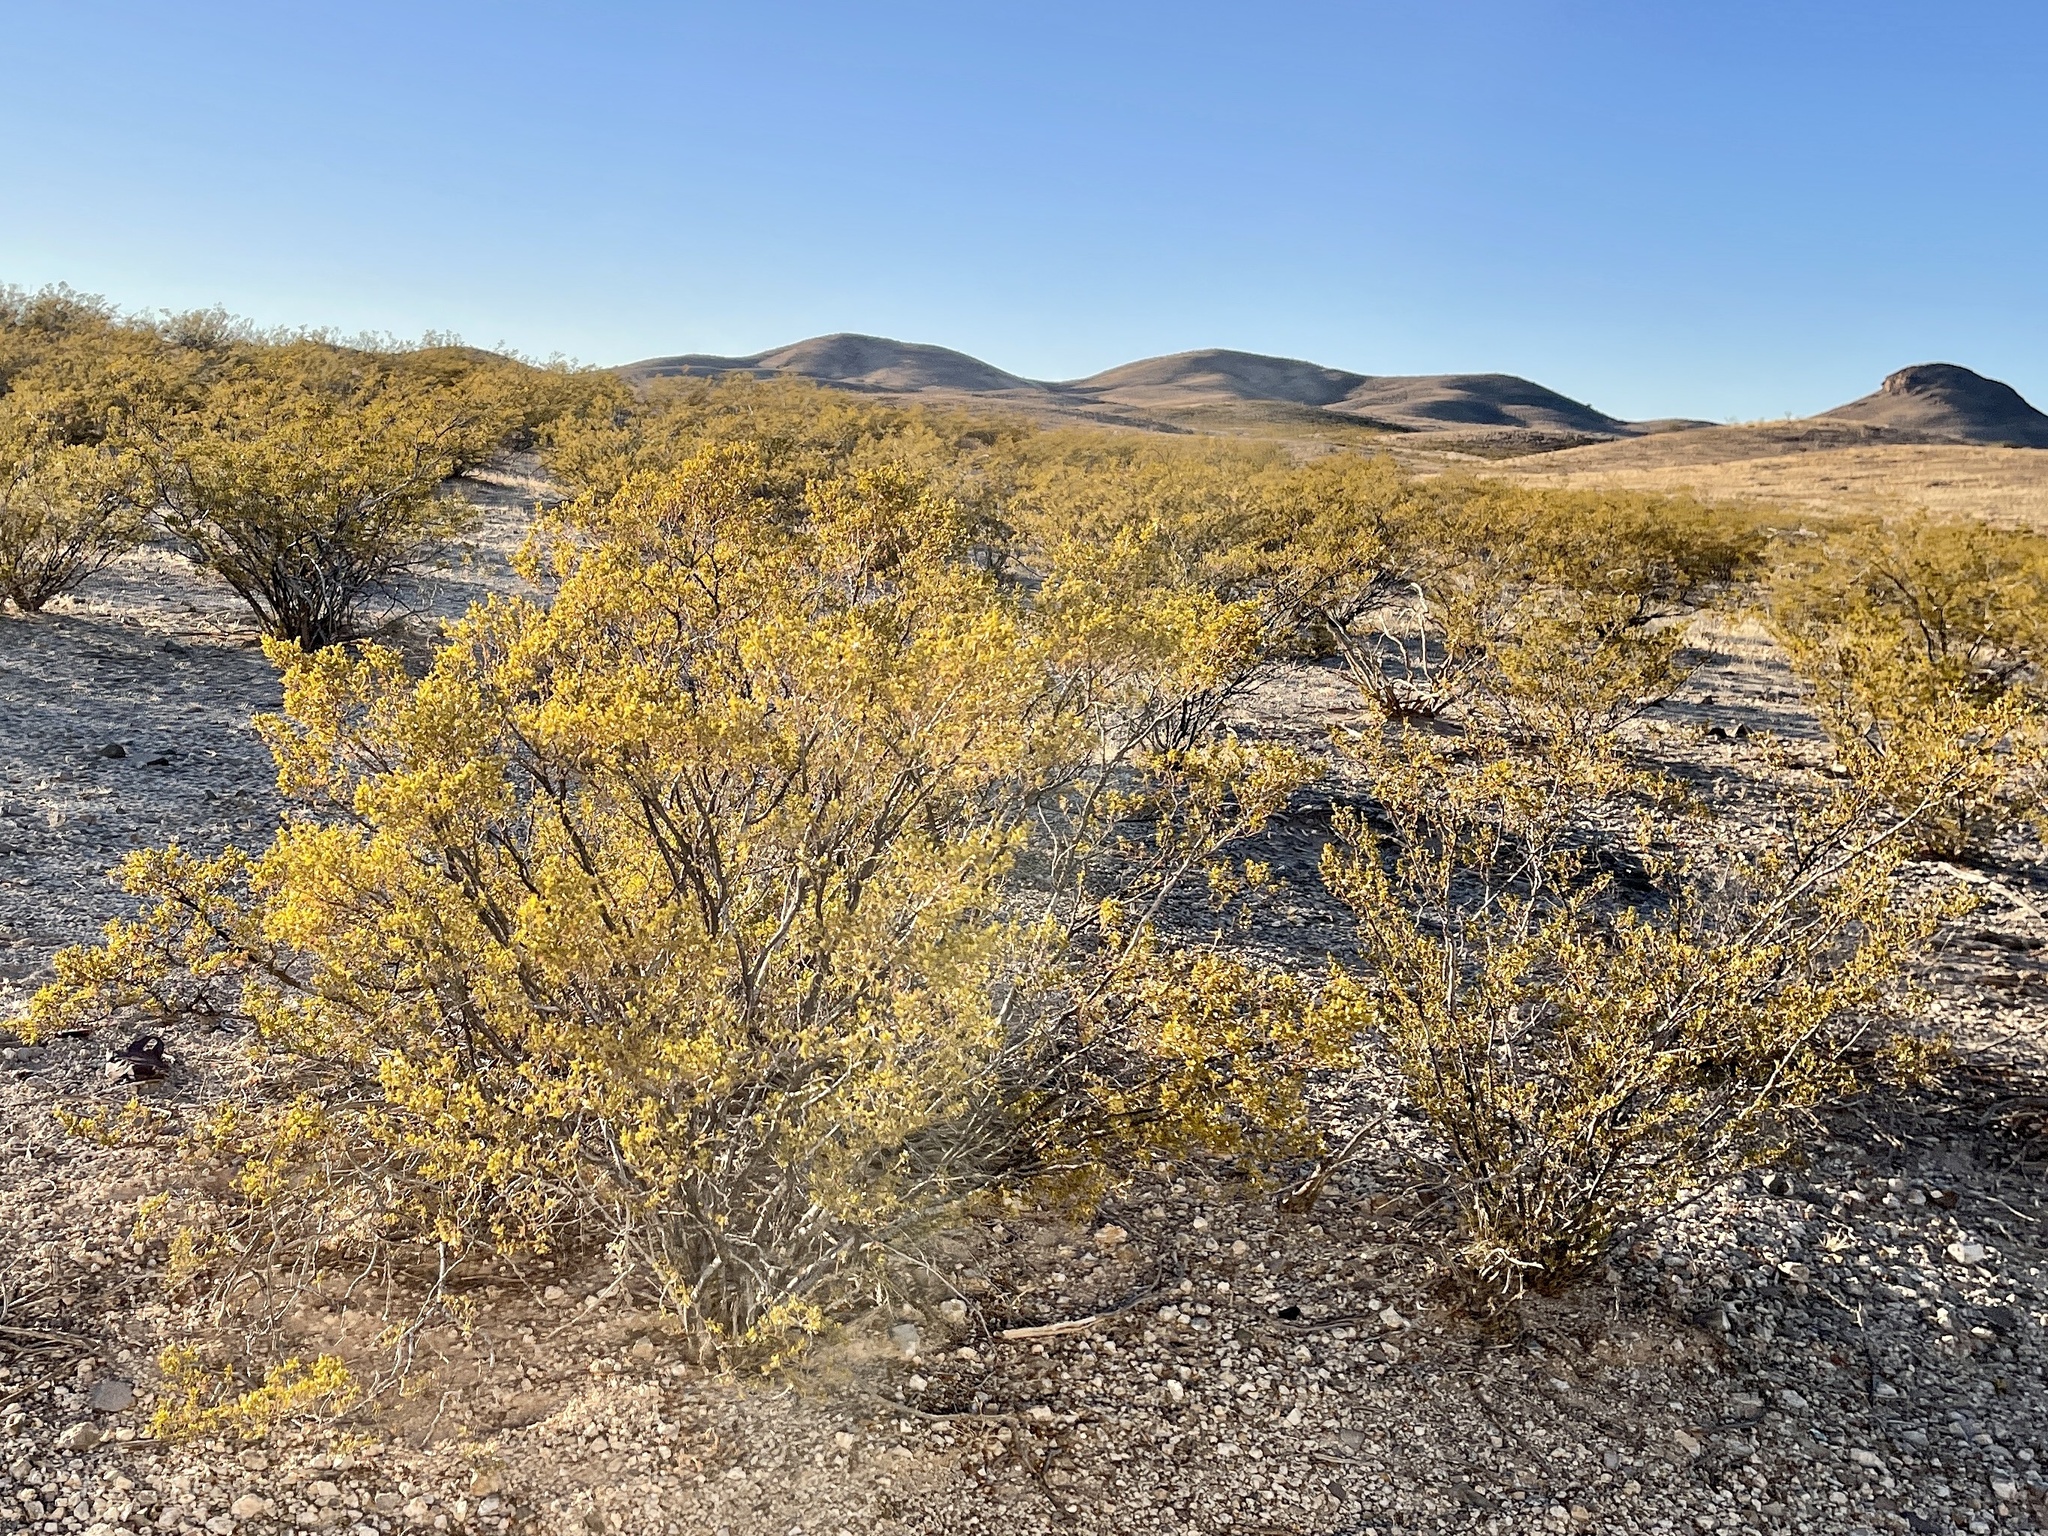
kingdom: Plantae
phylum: Tracheophyta
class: Magnoliopsida
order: Zygophyllales
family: Zygophyllaceae
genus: Larrea
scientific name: Larrea tridentata
